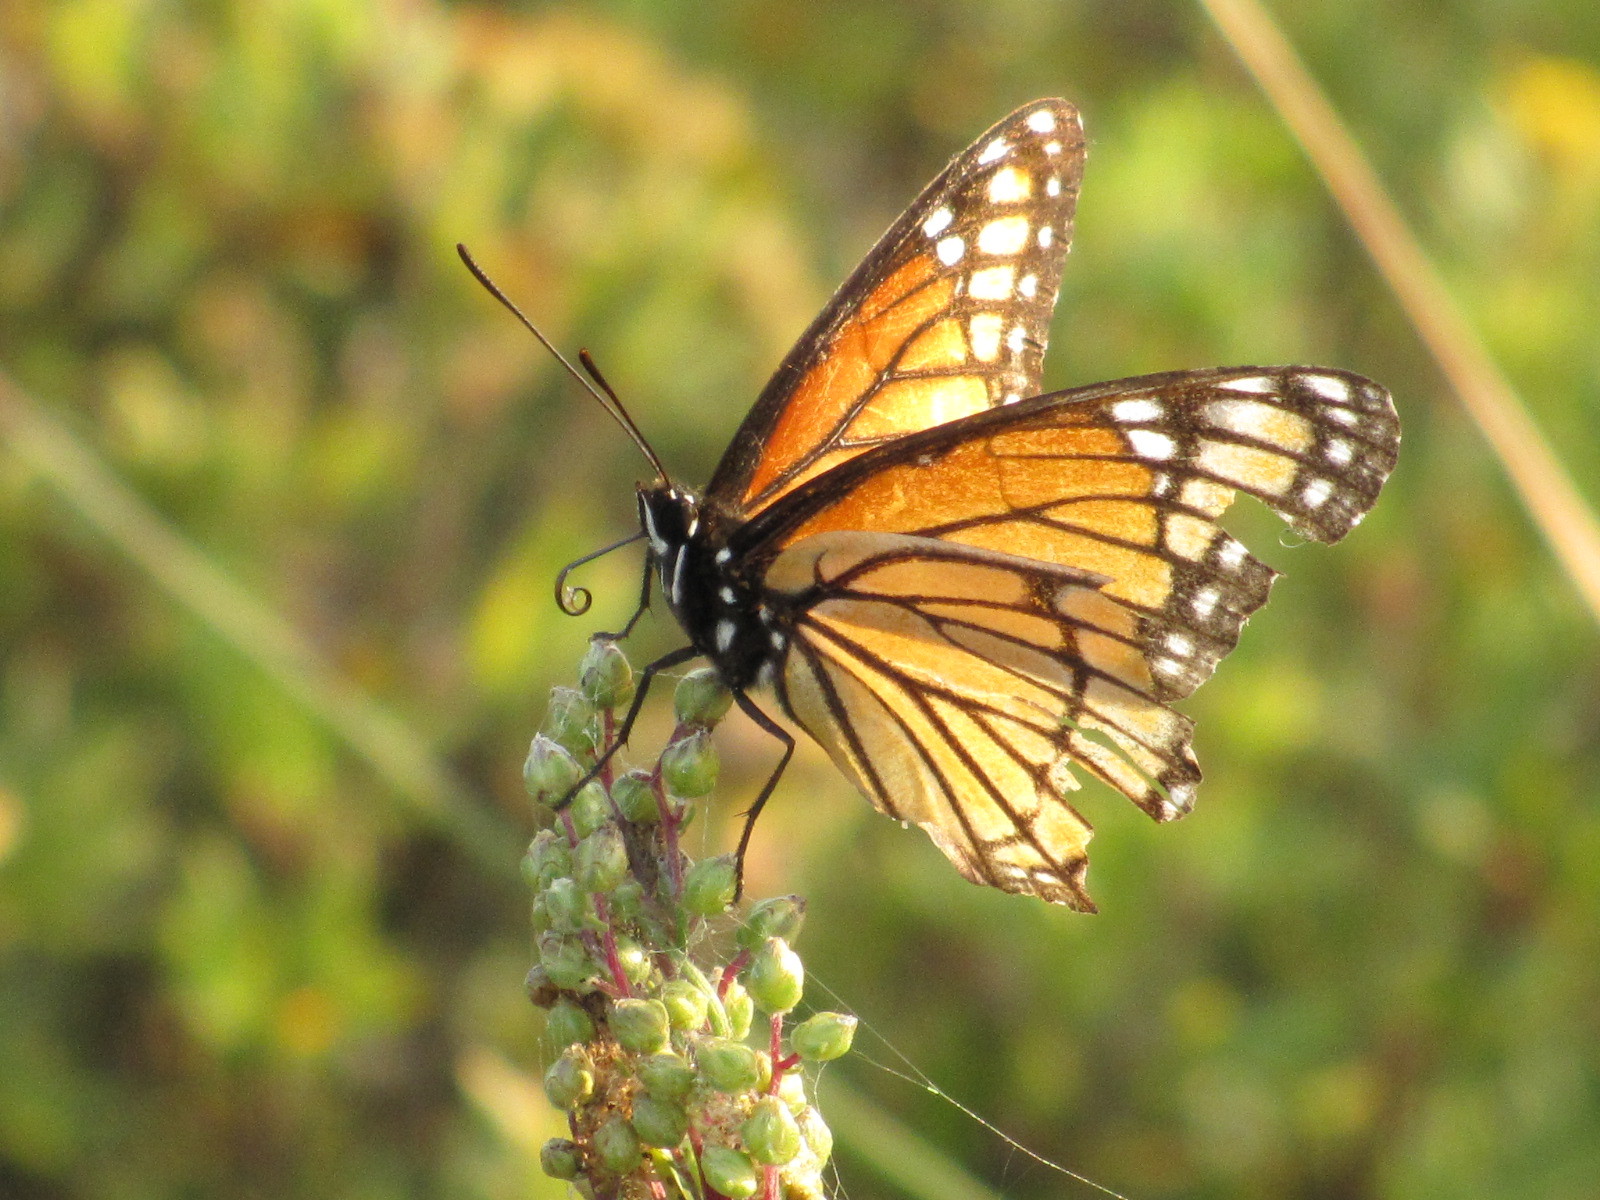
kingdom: Animalia
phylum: Arthropoda
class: Insecta
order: Lepidoptera
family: Nymphalidae
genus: Limenitis
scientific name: Limenitis archippus
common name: Viceroy
